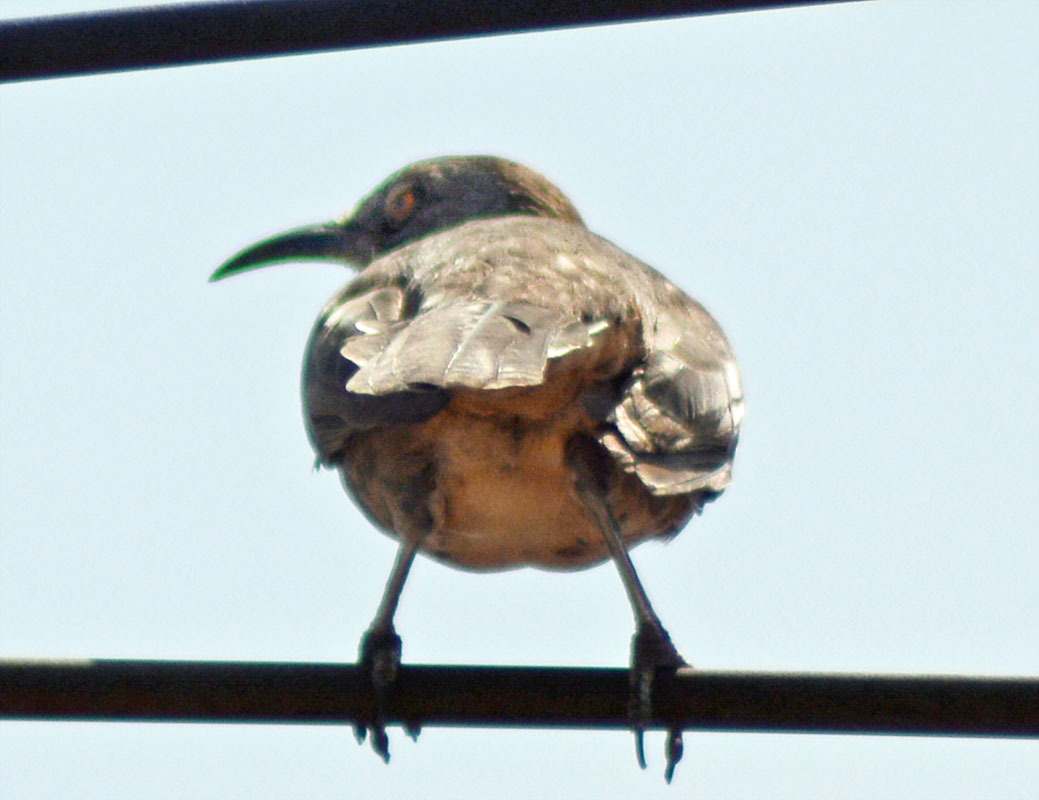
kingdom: Animalia
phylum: Chordata
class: Aves
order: Passeriformes
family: Mimidae
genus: Toxostoma
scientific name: Toxostoma curvirostre
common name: Curve-billed thrasher
